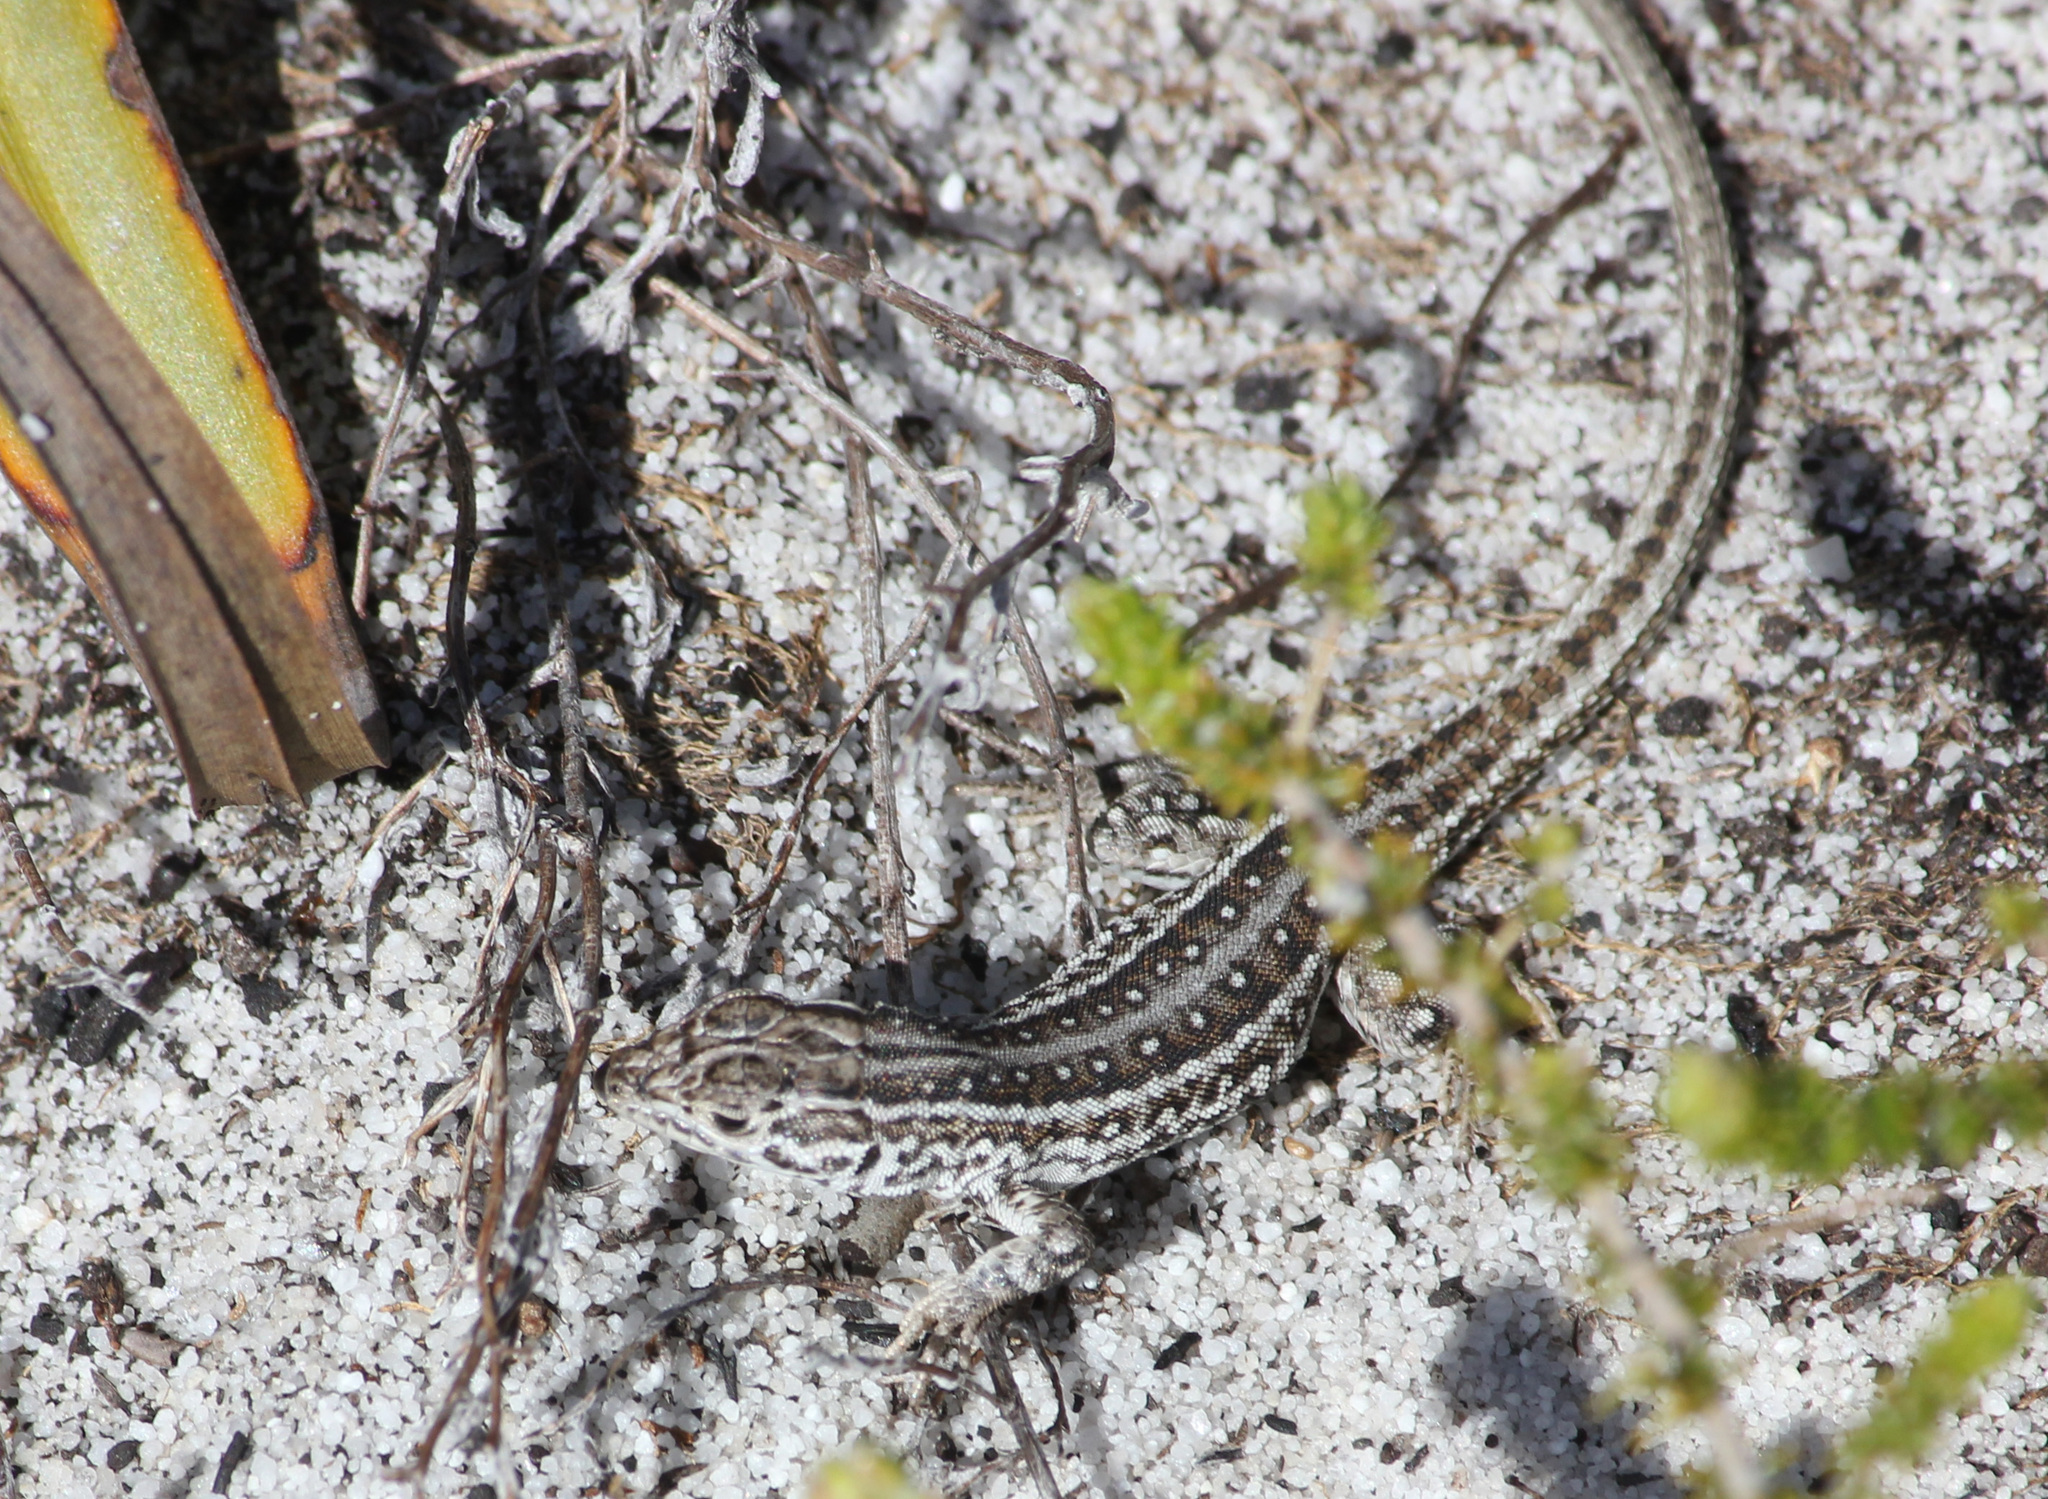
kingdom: Animalia
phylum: Chordata
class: Squamata
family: Lacertidae
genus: Meroles
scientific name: Meroles knoxii
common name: Knox's desert lizard
